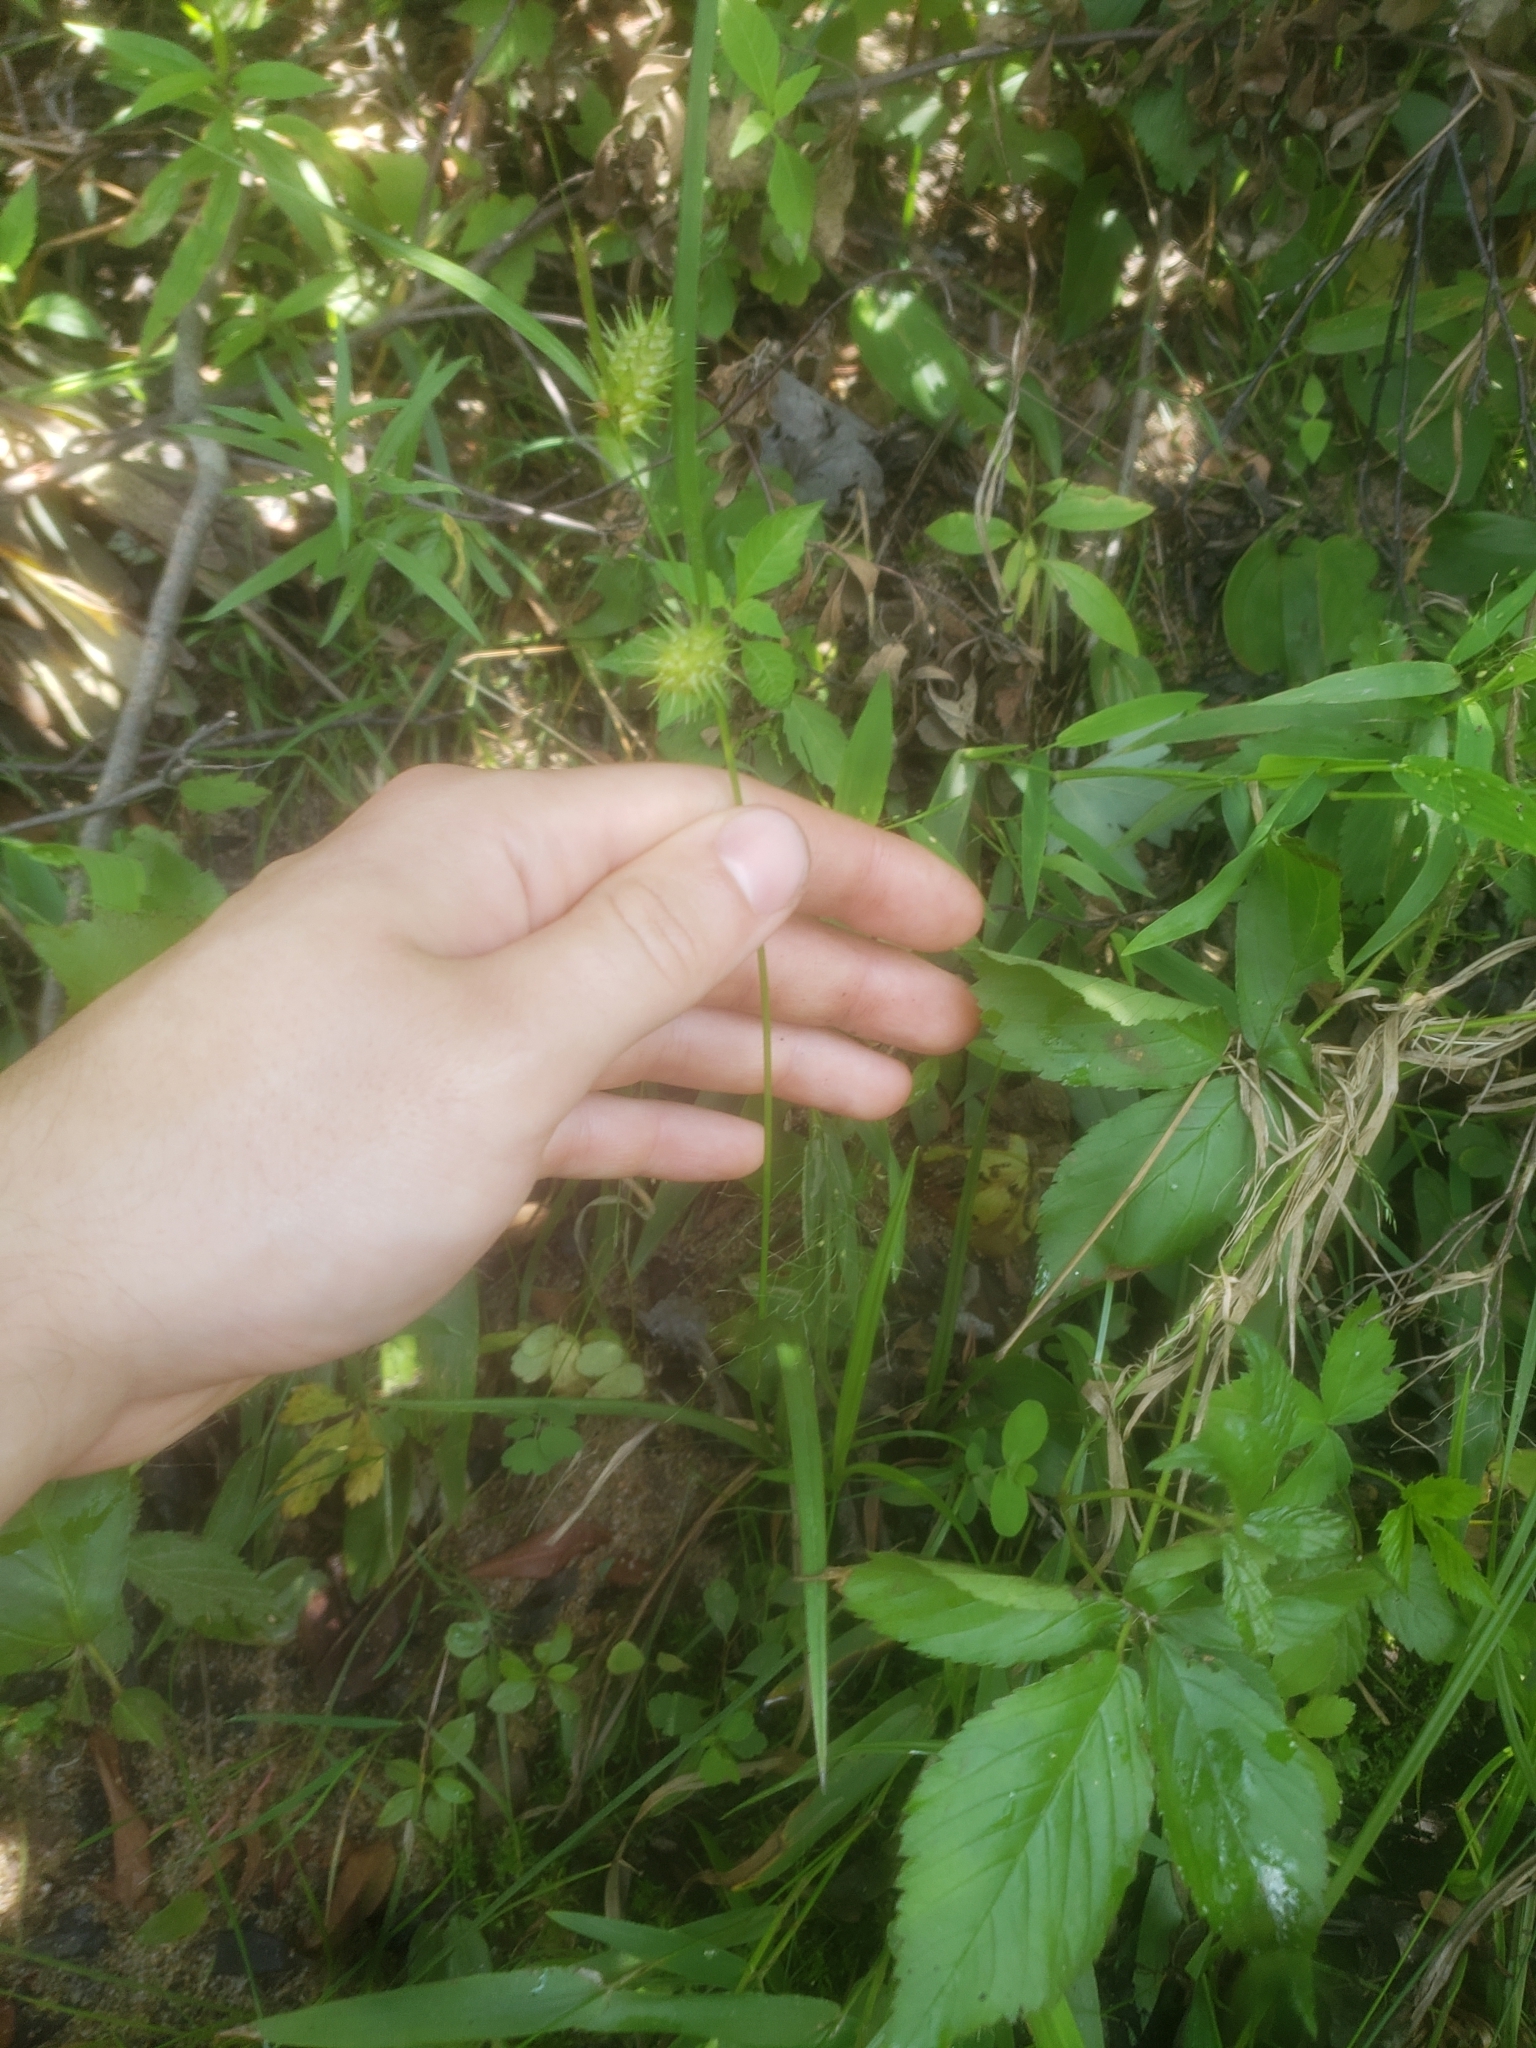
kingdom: Plantae
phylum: Tracheophyta
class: Liliopsida
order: Poales
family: Cyperaceae
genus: Carex
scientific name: Carex lurida
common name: Sallow sedge
